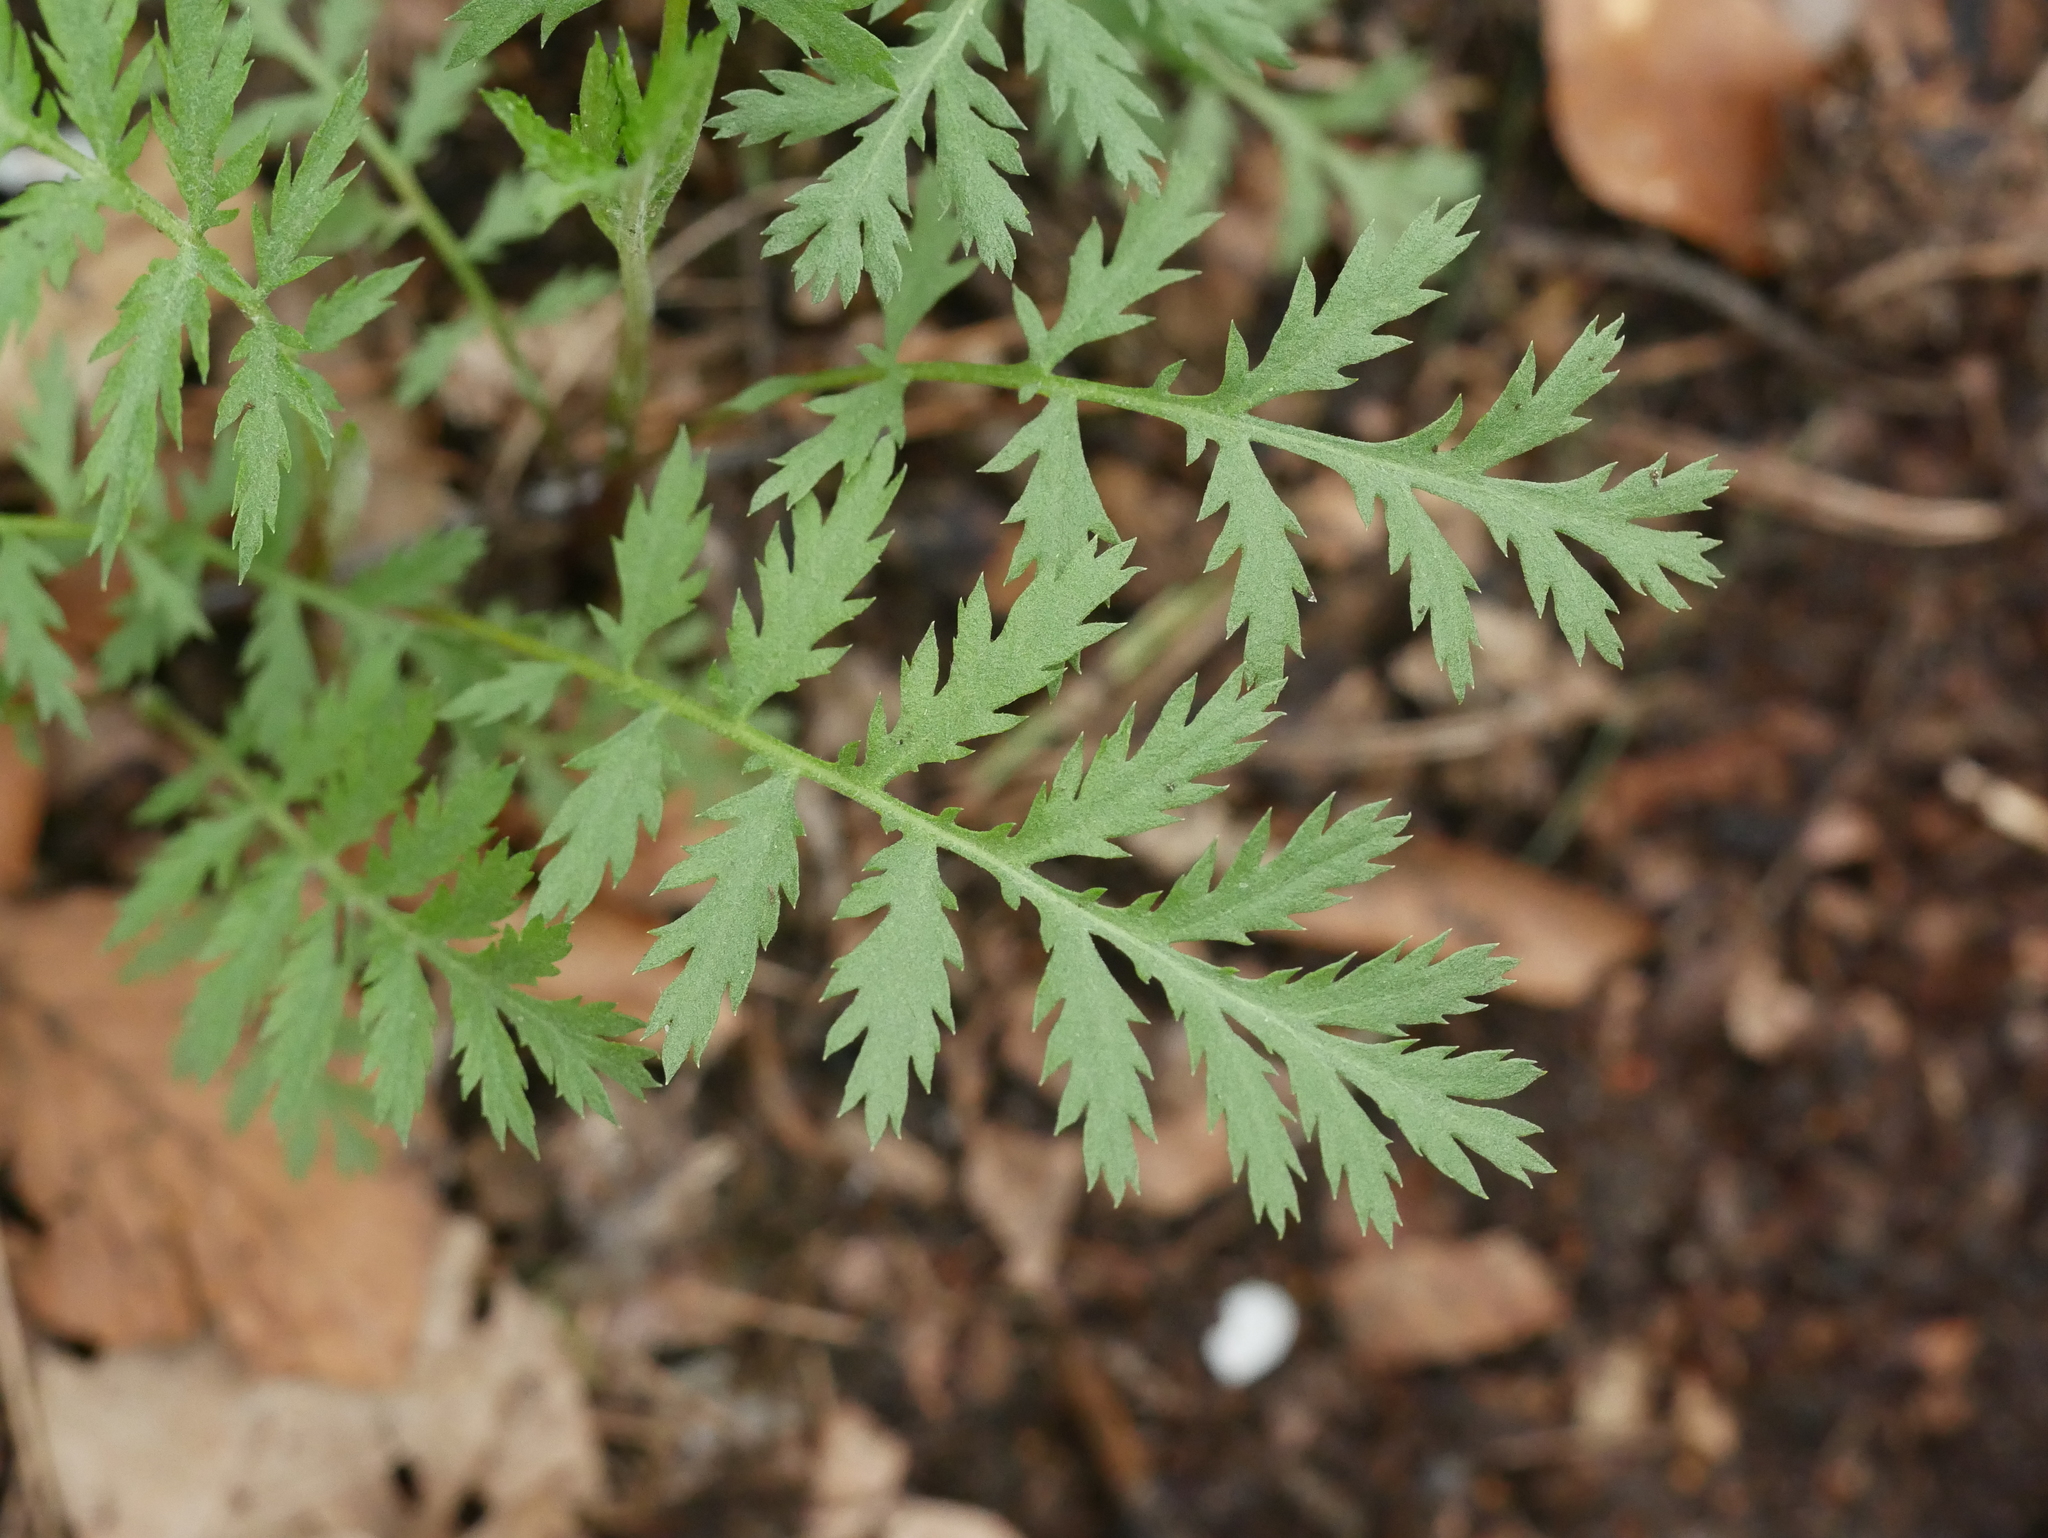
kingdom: Plantae
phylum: Tracheophyta
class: Magnoliopsida
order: Asterales
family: Asteraceae
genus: Tanacetum
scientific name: Tanacetum vulgare
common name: Common tansy
